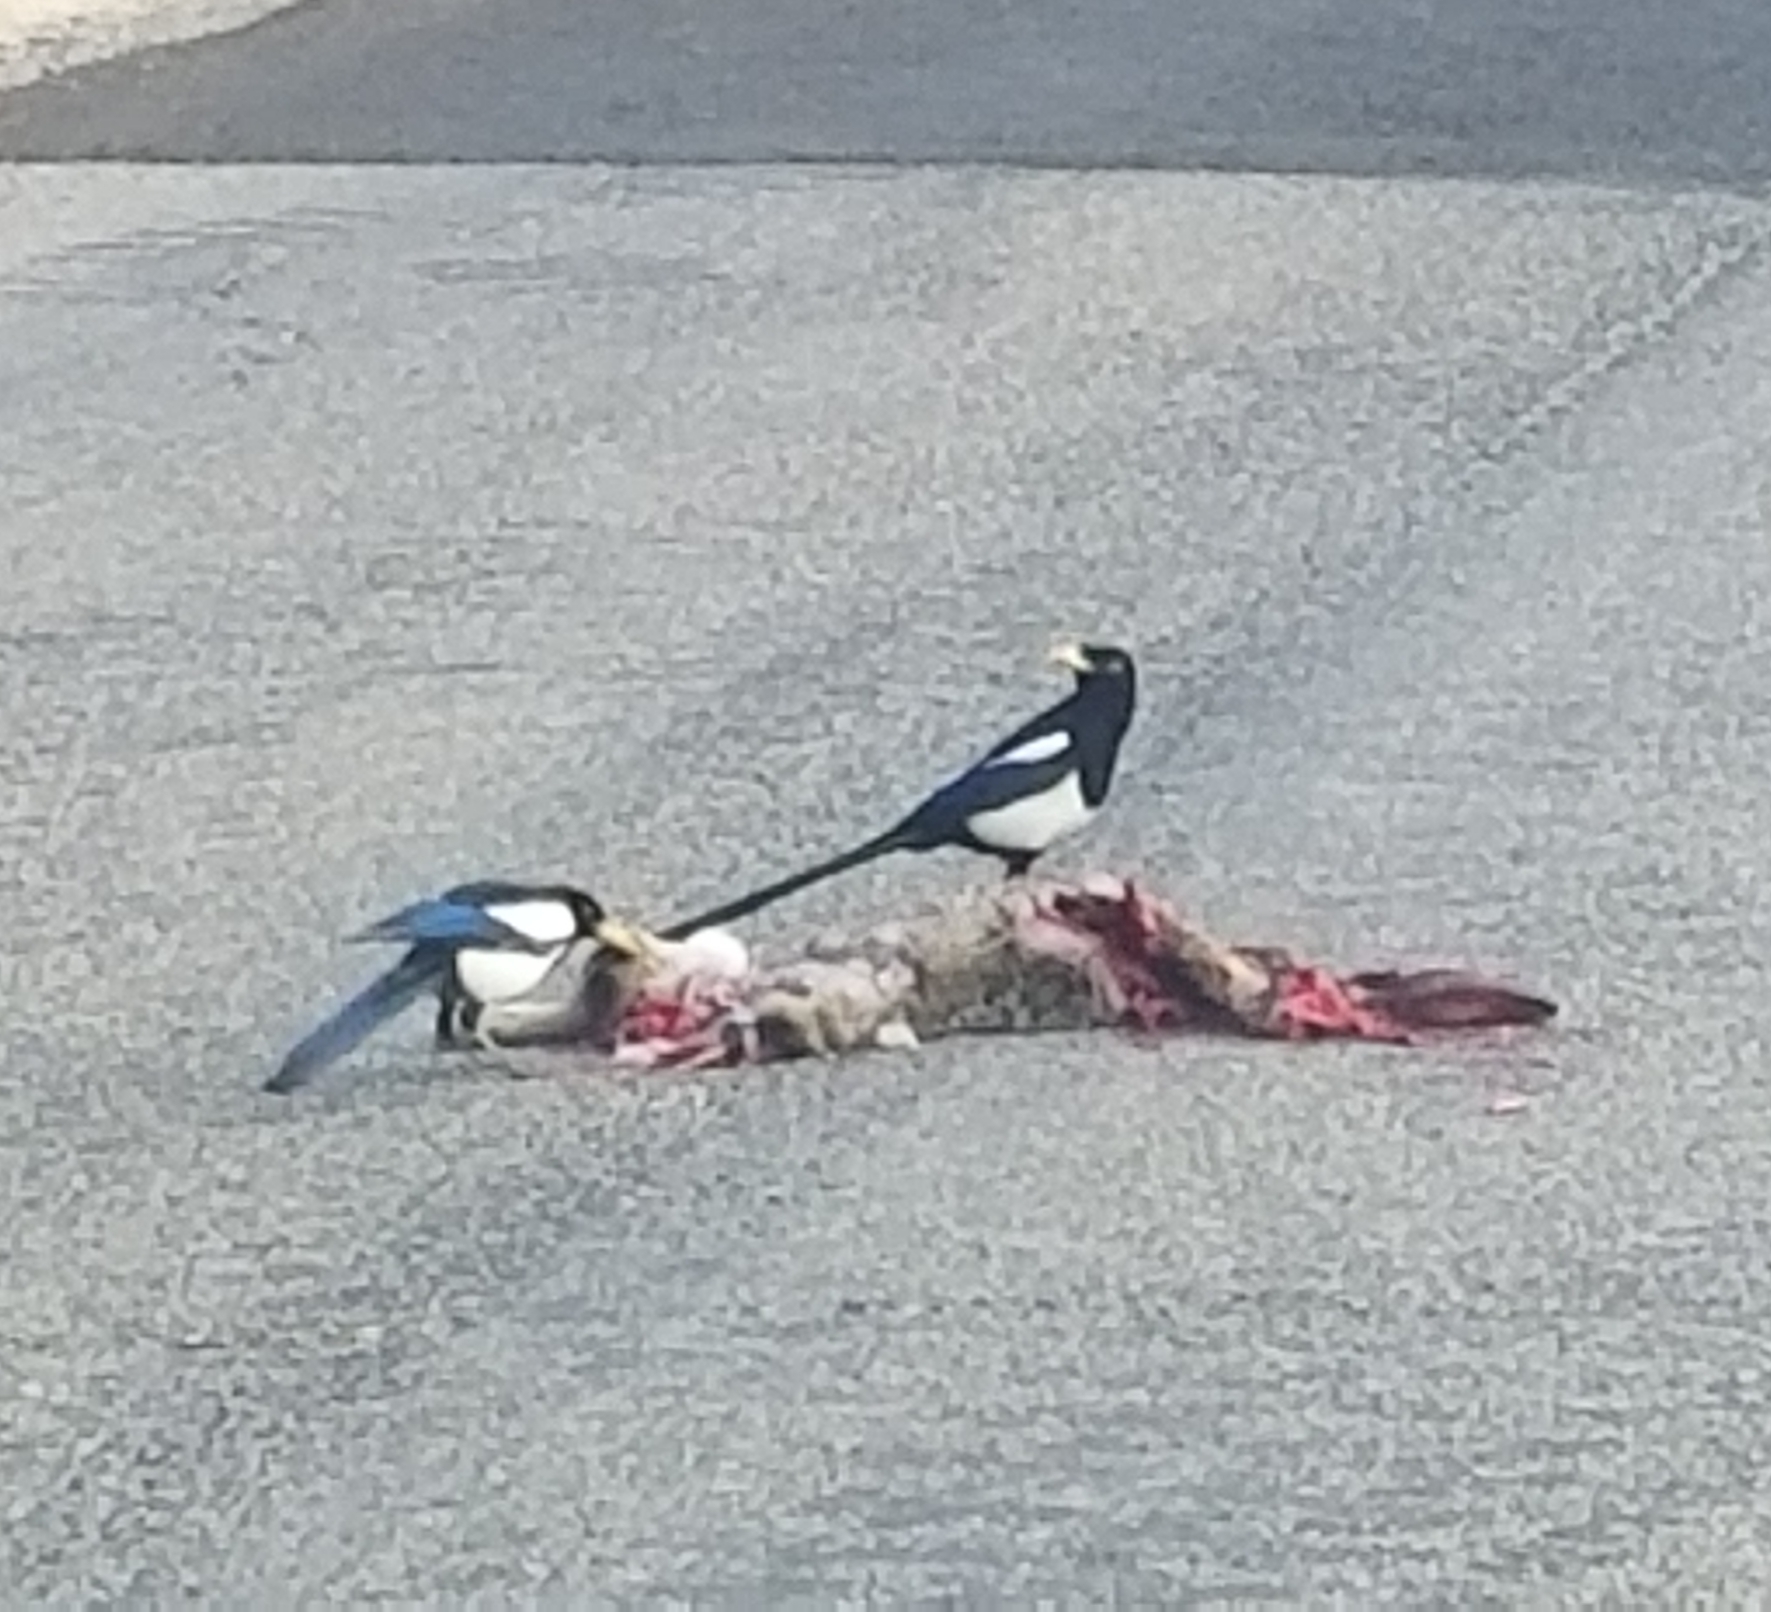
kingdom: Animalia
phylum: Chordata
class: Aves
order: Passeriformes
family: Corvidae
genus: Pica
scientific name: Pica nuttalli
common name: Yellow-billed magpie
